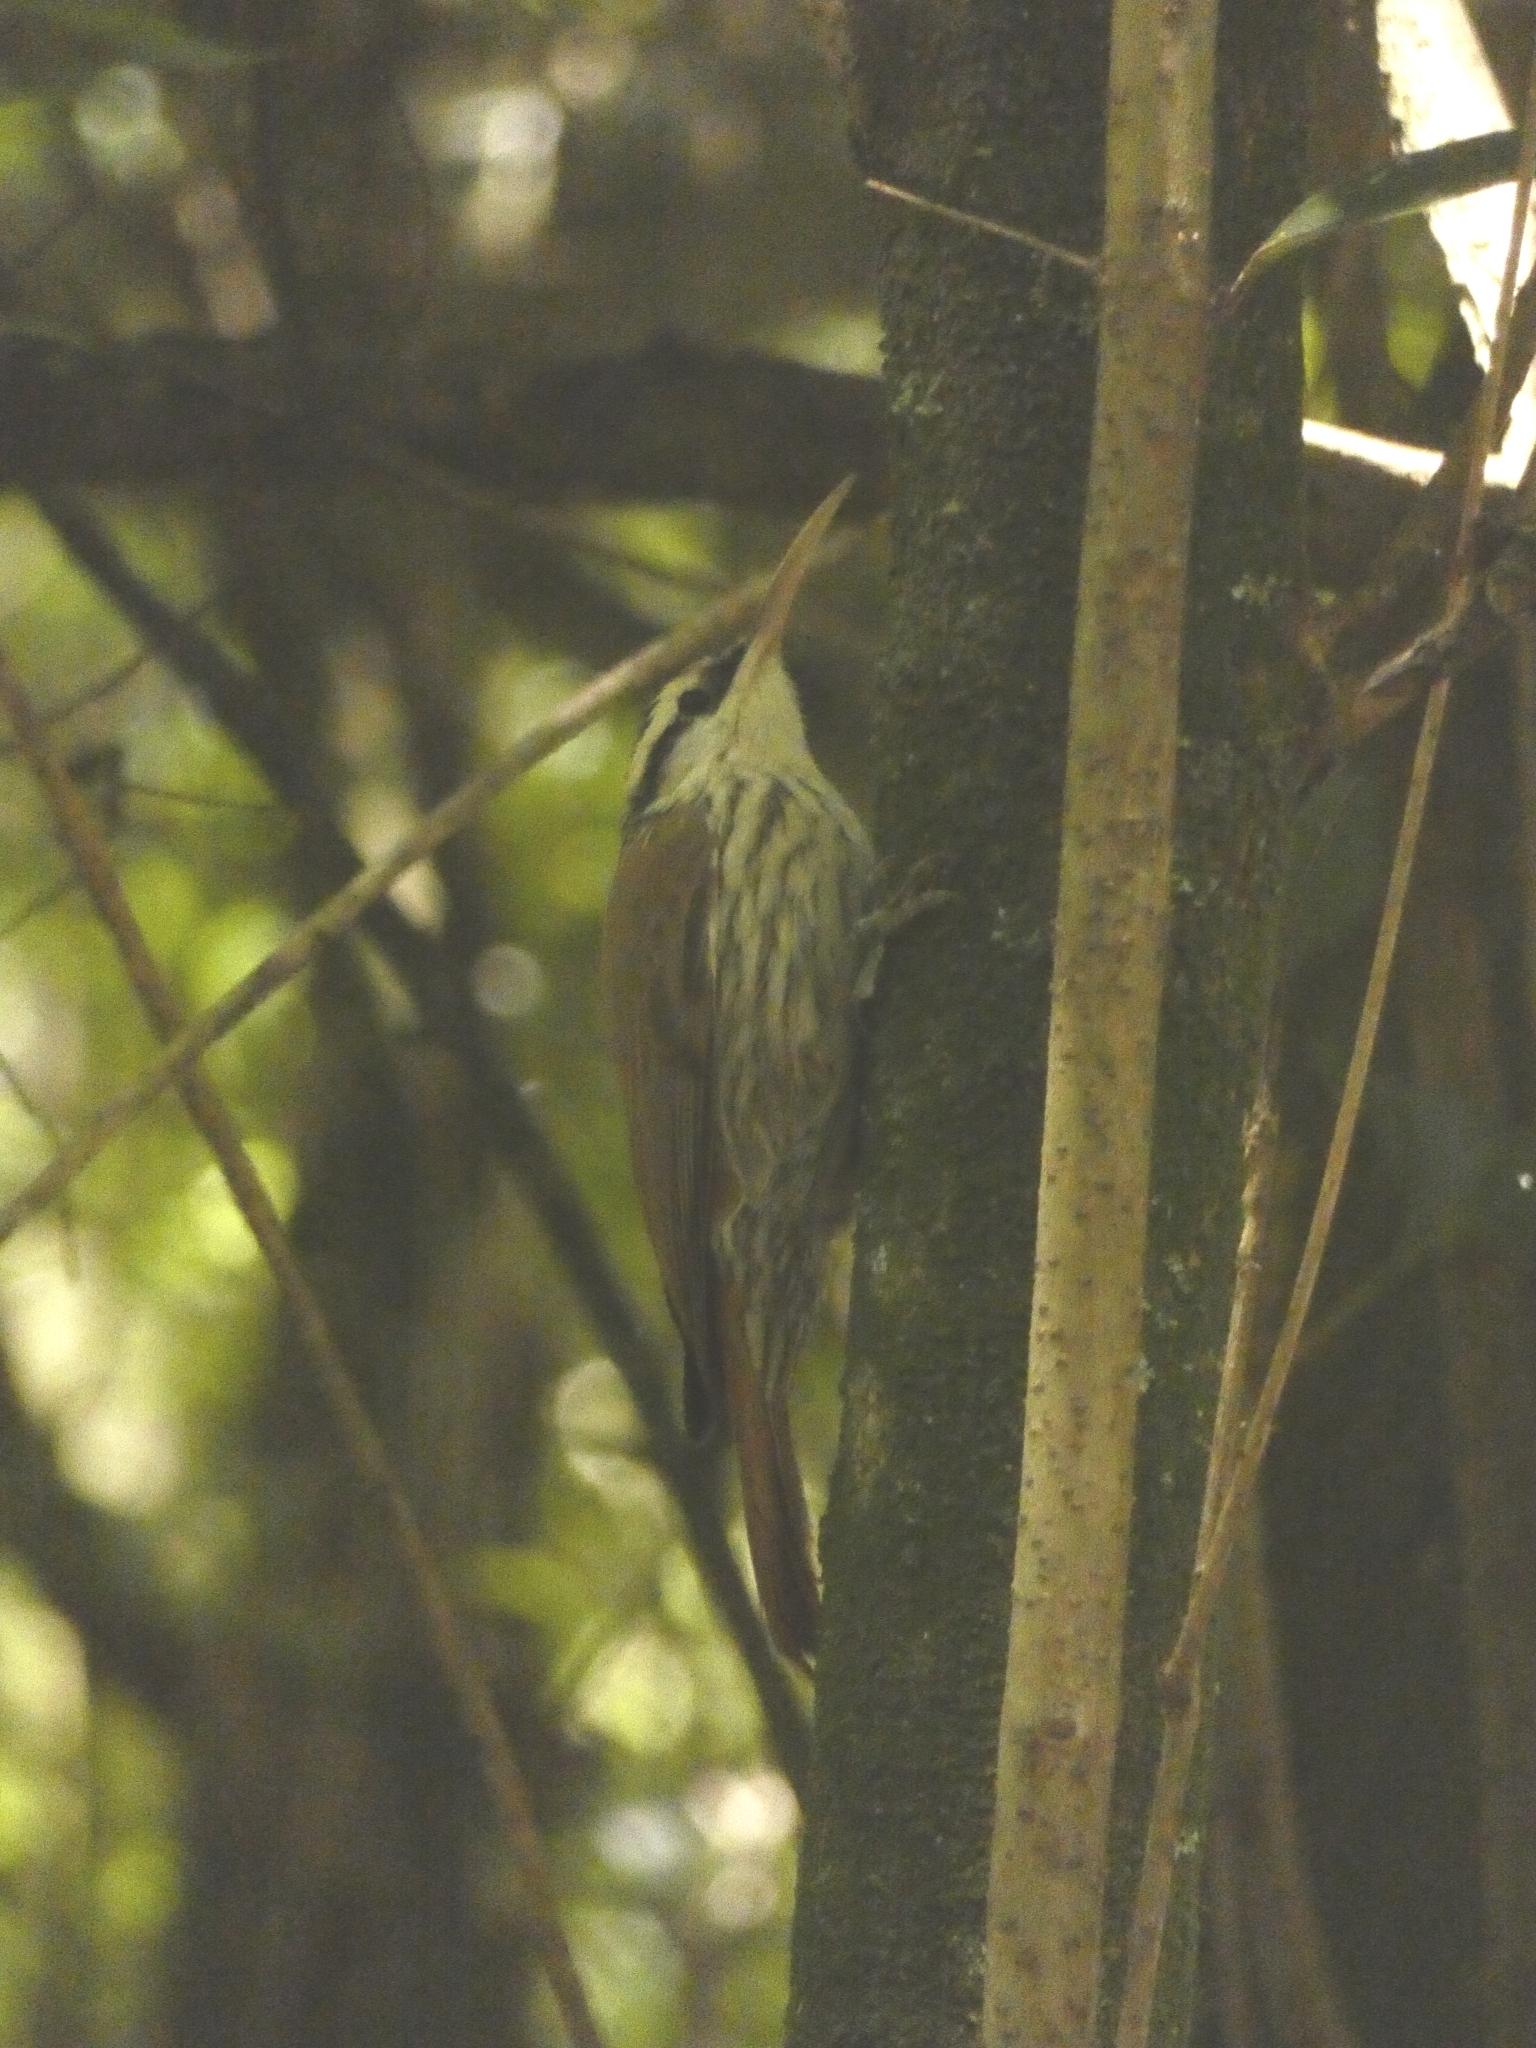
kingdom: Animalia
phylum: Chordata
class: Aves
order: Passeriformes
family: Furnariidae
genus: Lepidocolaptes
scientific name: Lepidocolaptes angustirostris
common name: Narrow-billed woodcreeper
